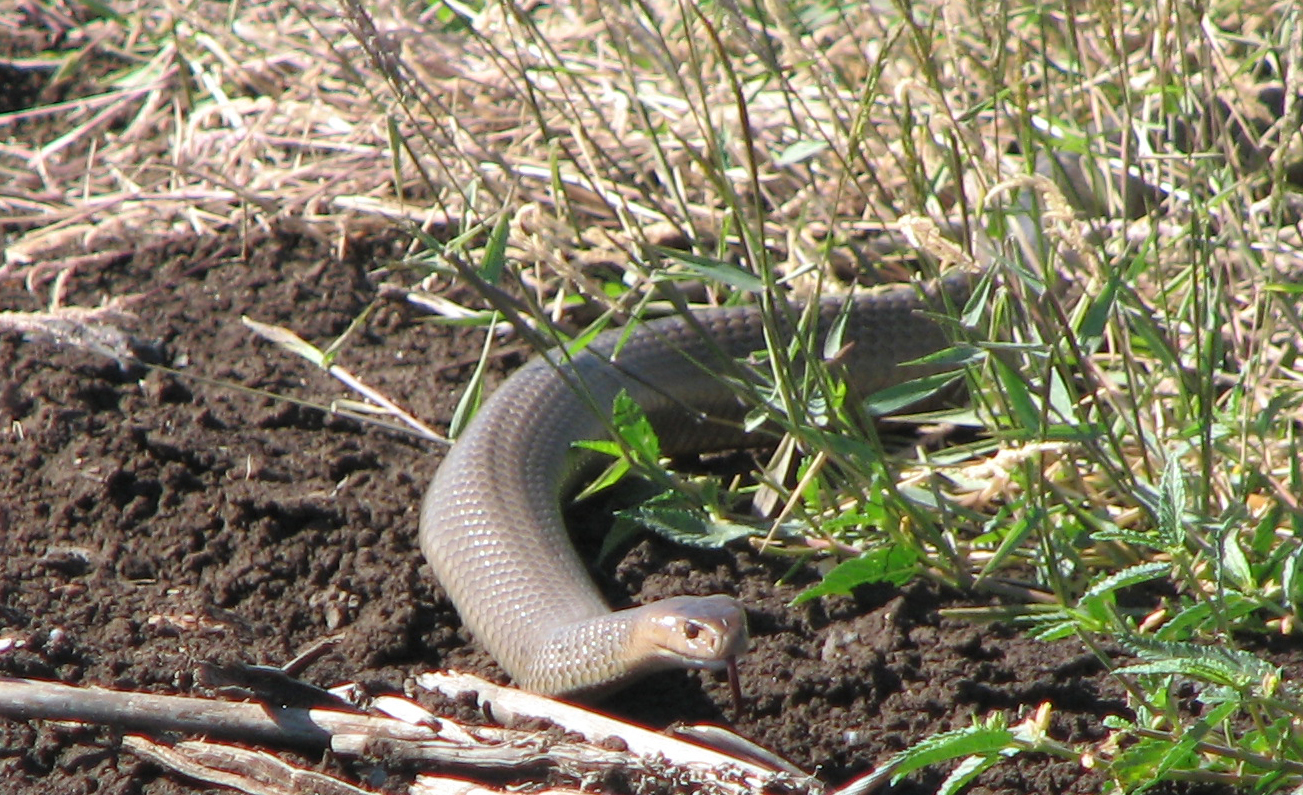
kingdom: Animalia
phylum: Chordata
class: Squamata
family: Elapidae
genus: Pseudonaja
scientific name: Pseudonaja textilis
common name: Eastern brown snake
